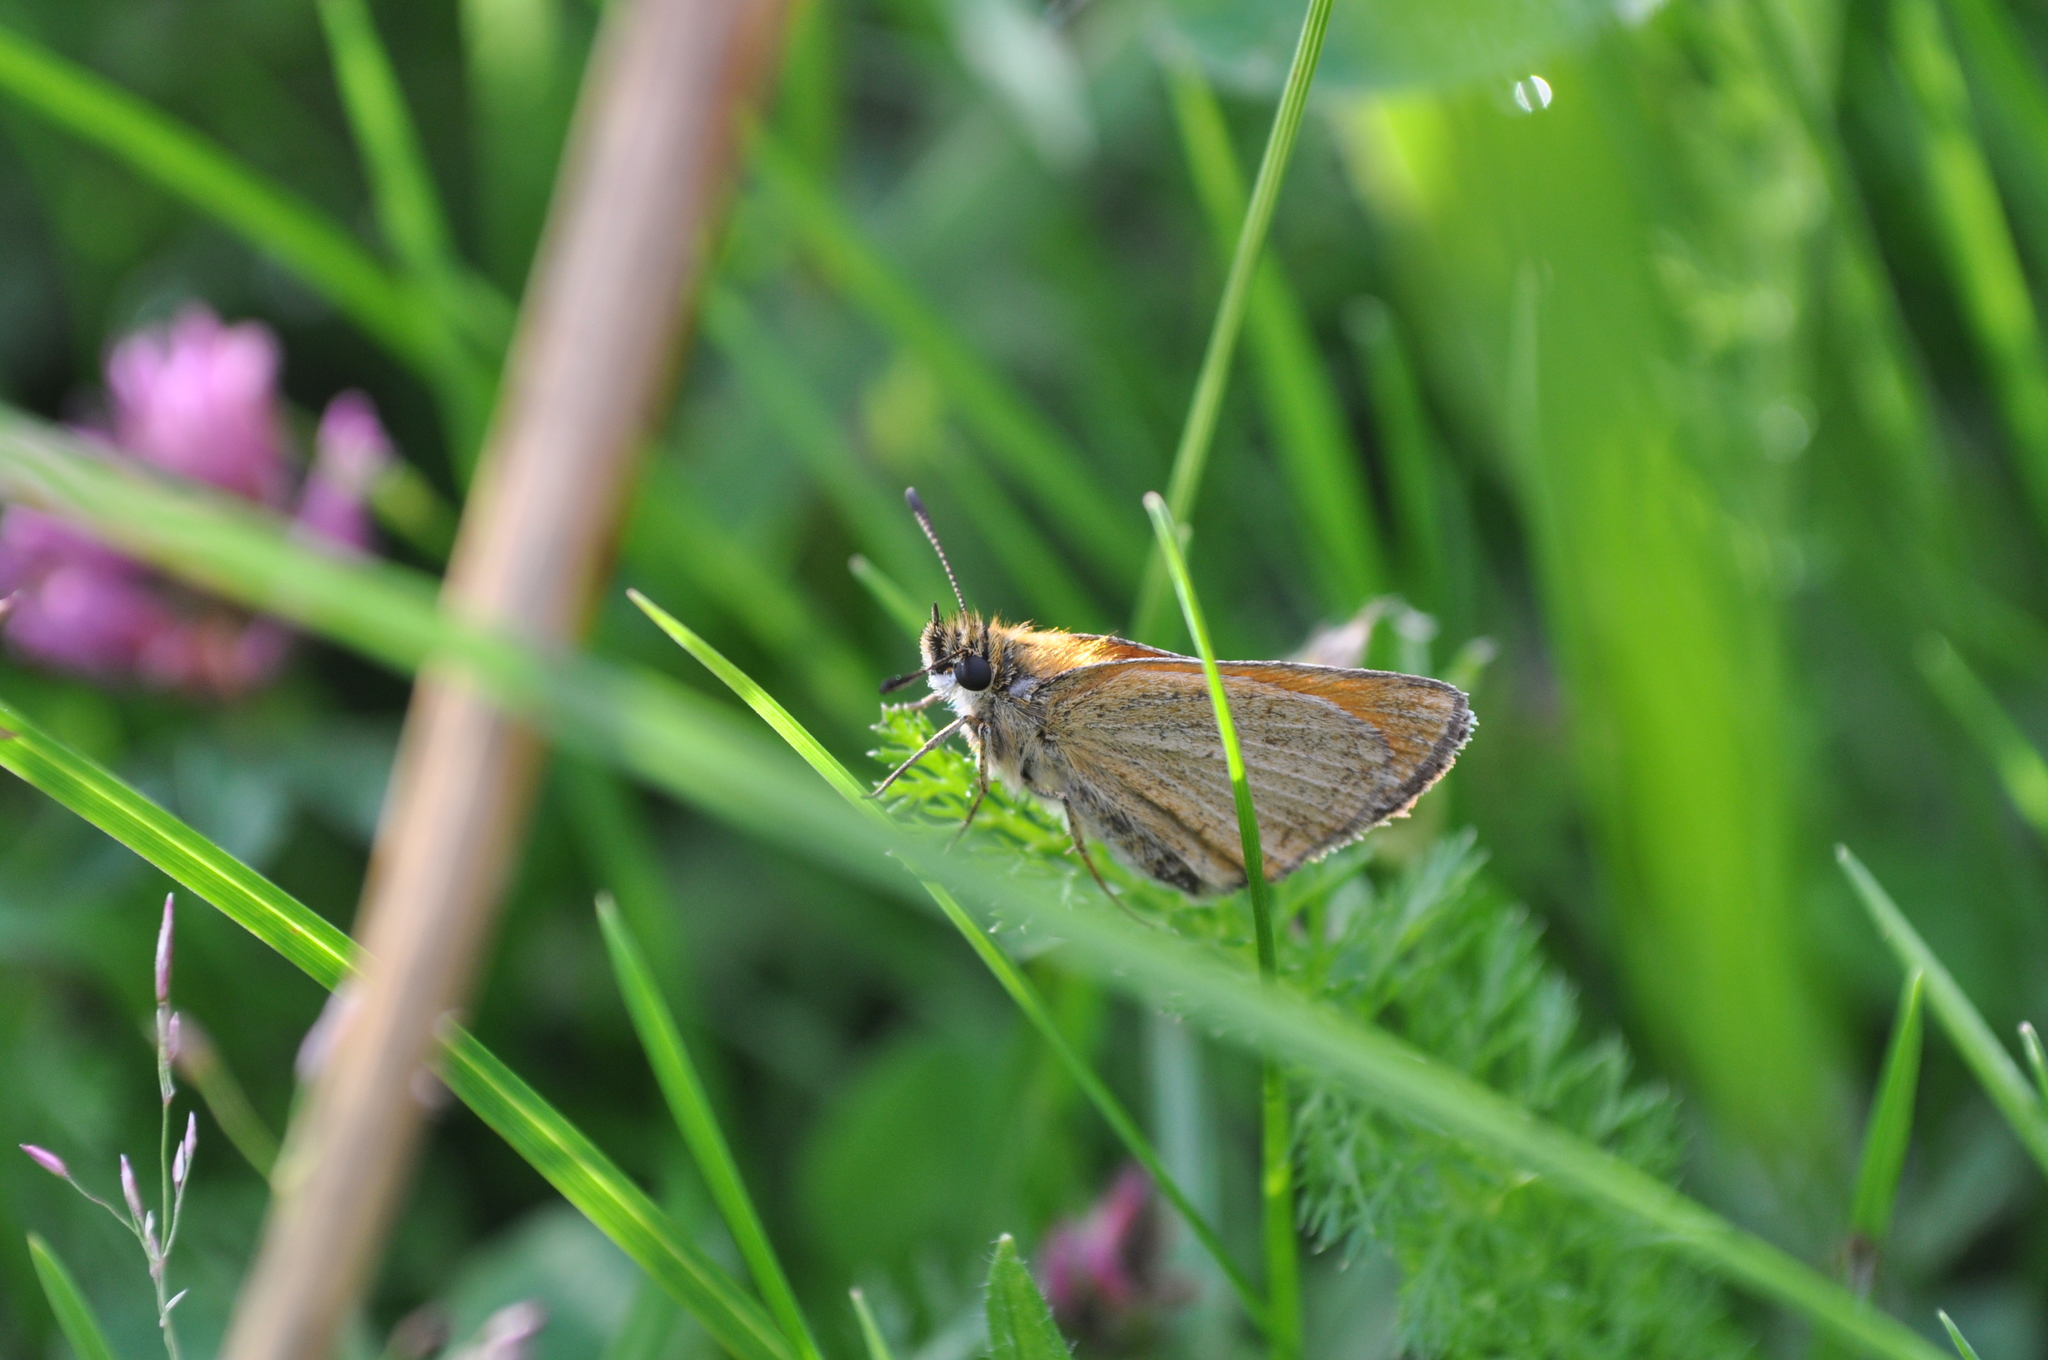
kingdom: Animalia
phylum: Arthropoda
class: Insecta
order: Lepidoptera
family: Hesperiidae
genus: Thymelicus
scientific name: Thymelicus lineola
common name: Essex skipper
